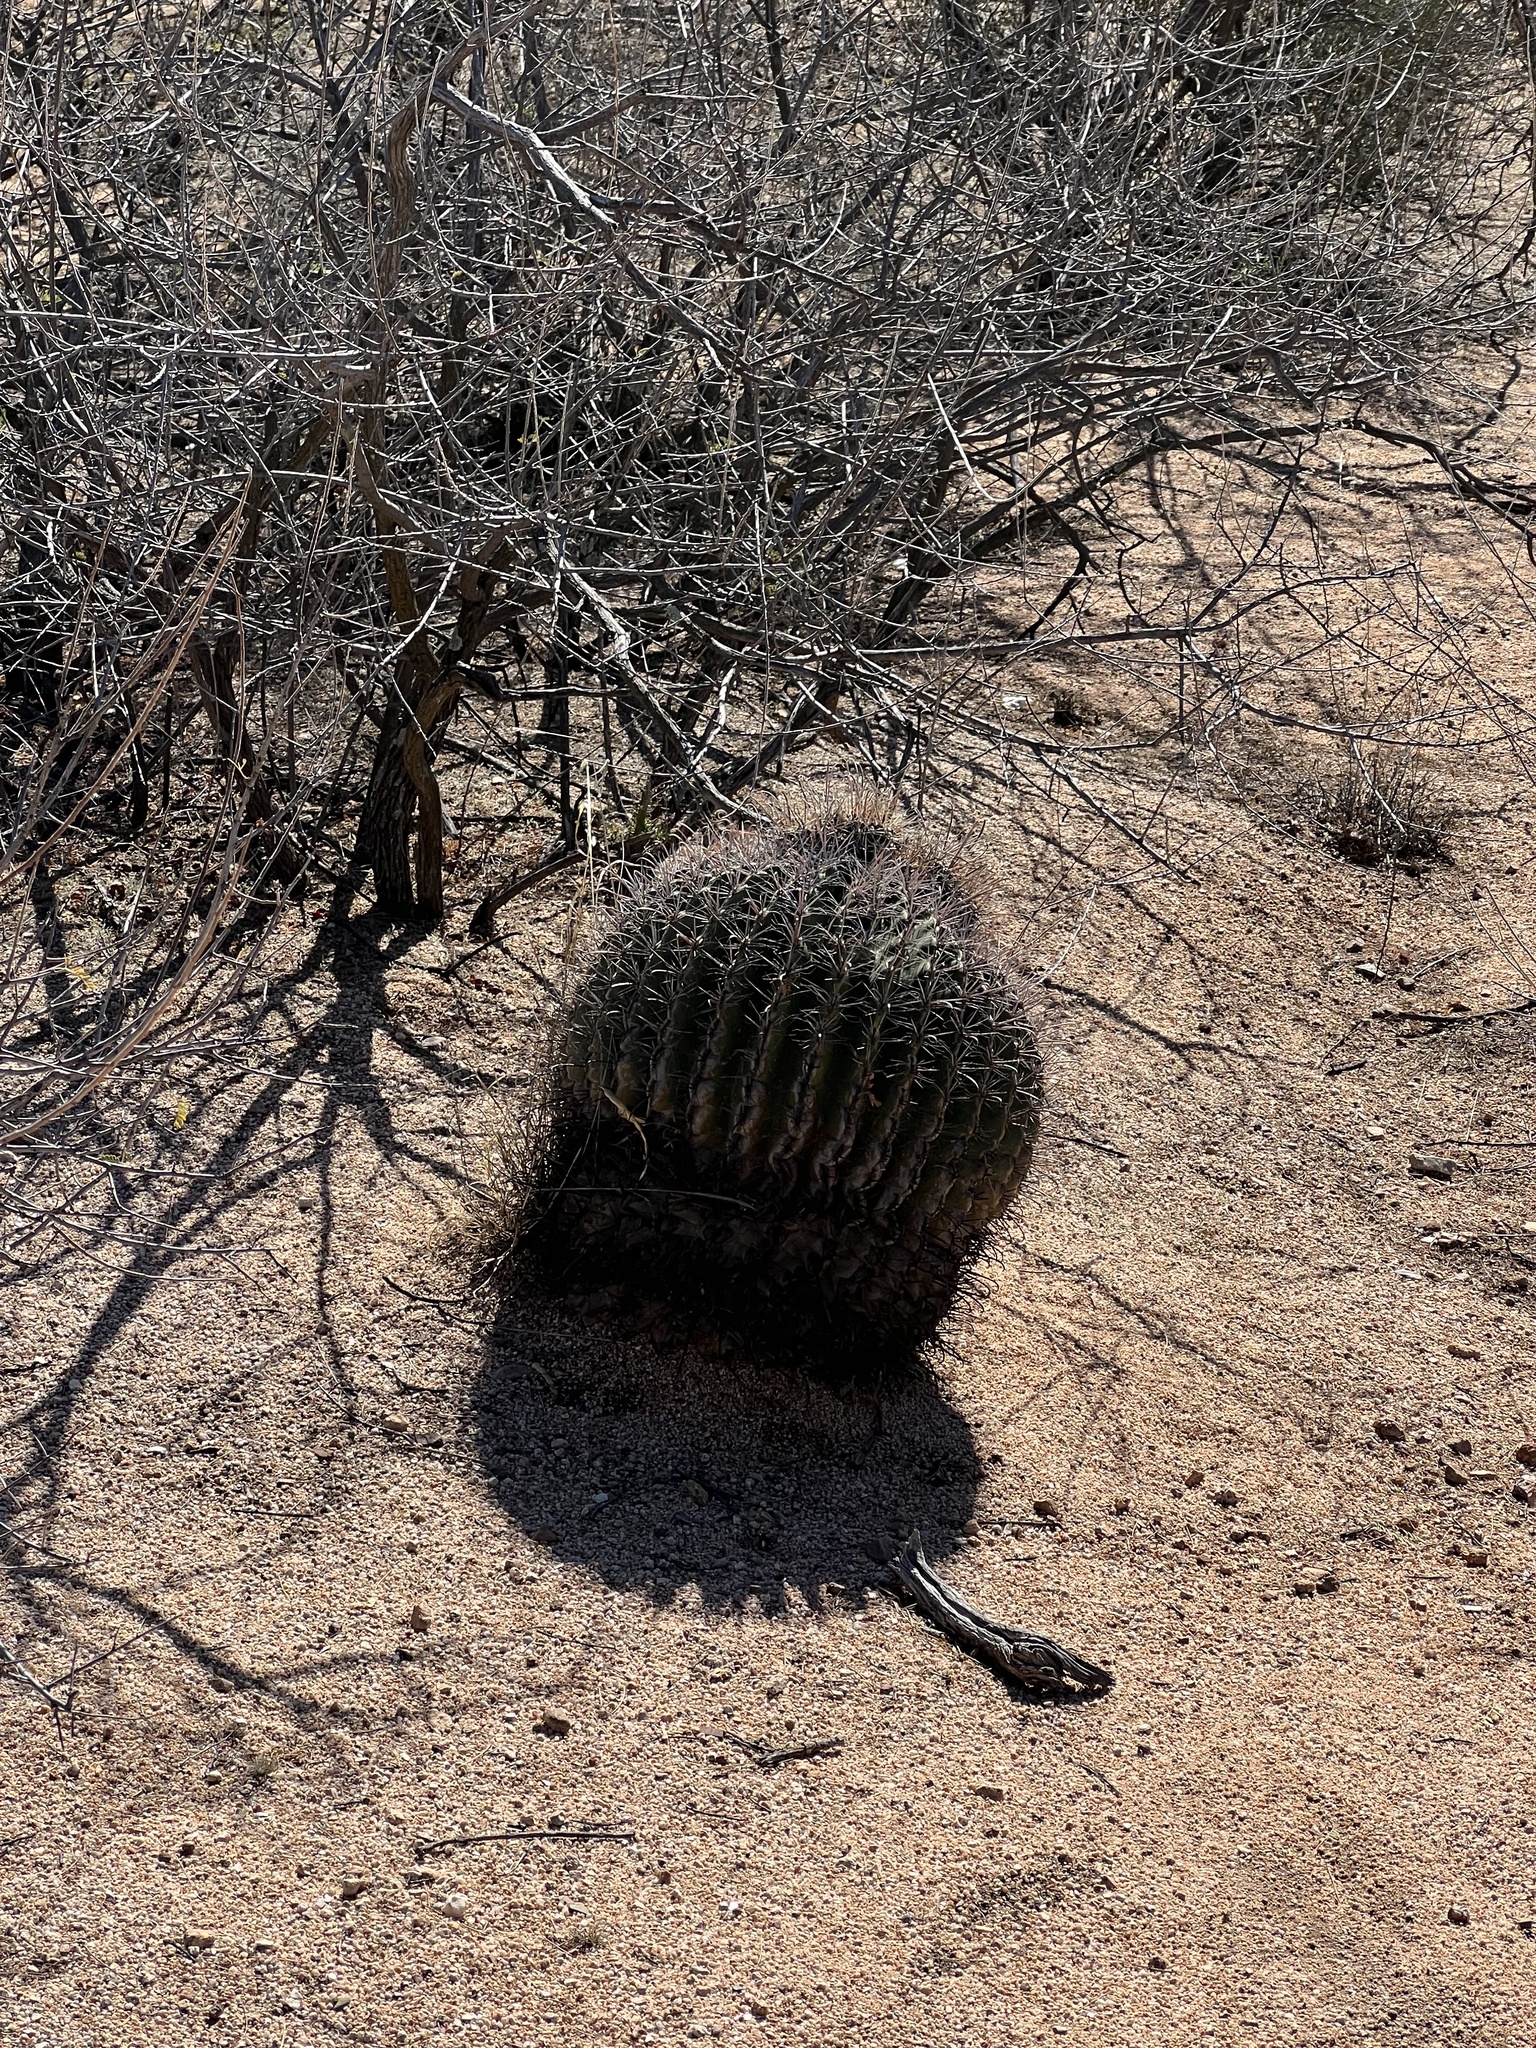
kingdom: Plantae
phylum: Tracheophyta
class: Magnoliopsida
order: Caryophyllales
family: Cactaceae
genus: Ferocactus
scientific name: Ferocactus wislizeni
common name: Candy barrel cactus
